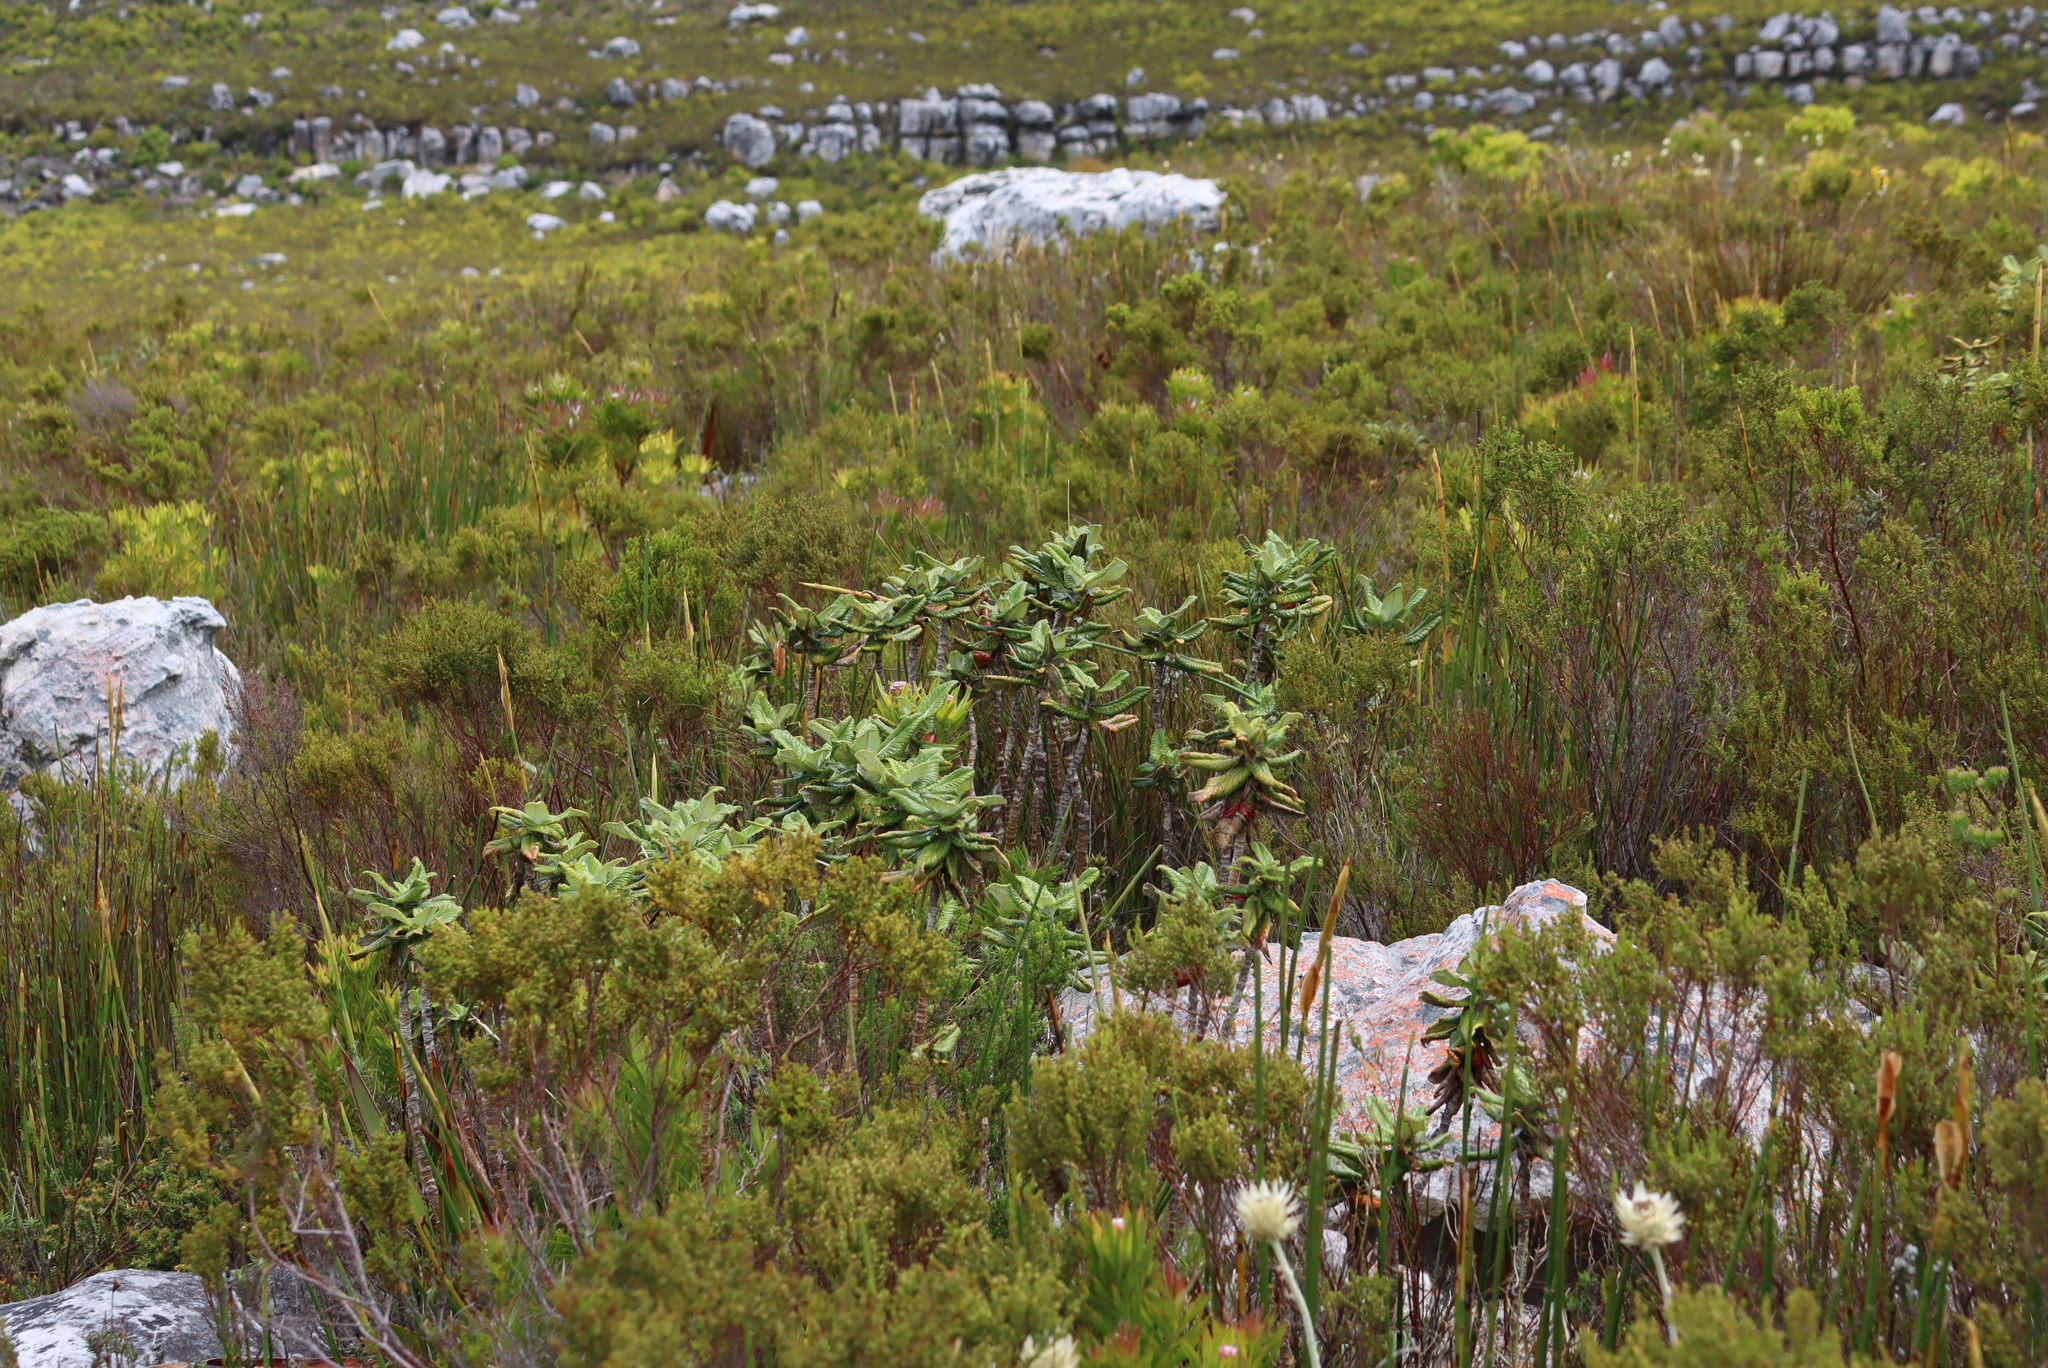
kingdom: Plantae
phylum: Tracheophyta
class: Magnoliopsida
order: Apiales
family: Apiaceae
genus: Hermas
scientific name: Hermas villosa
